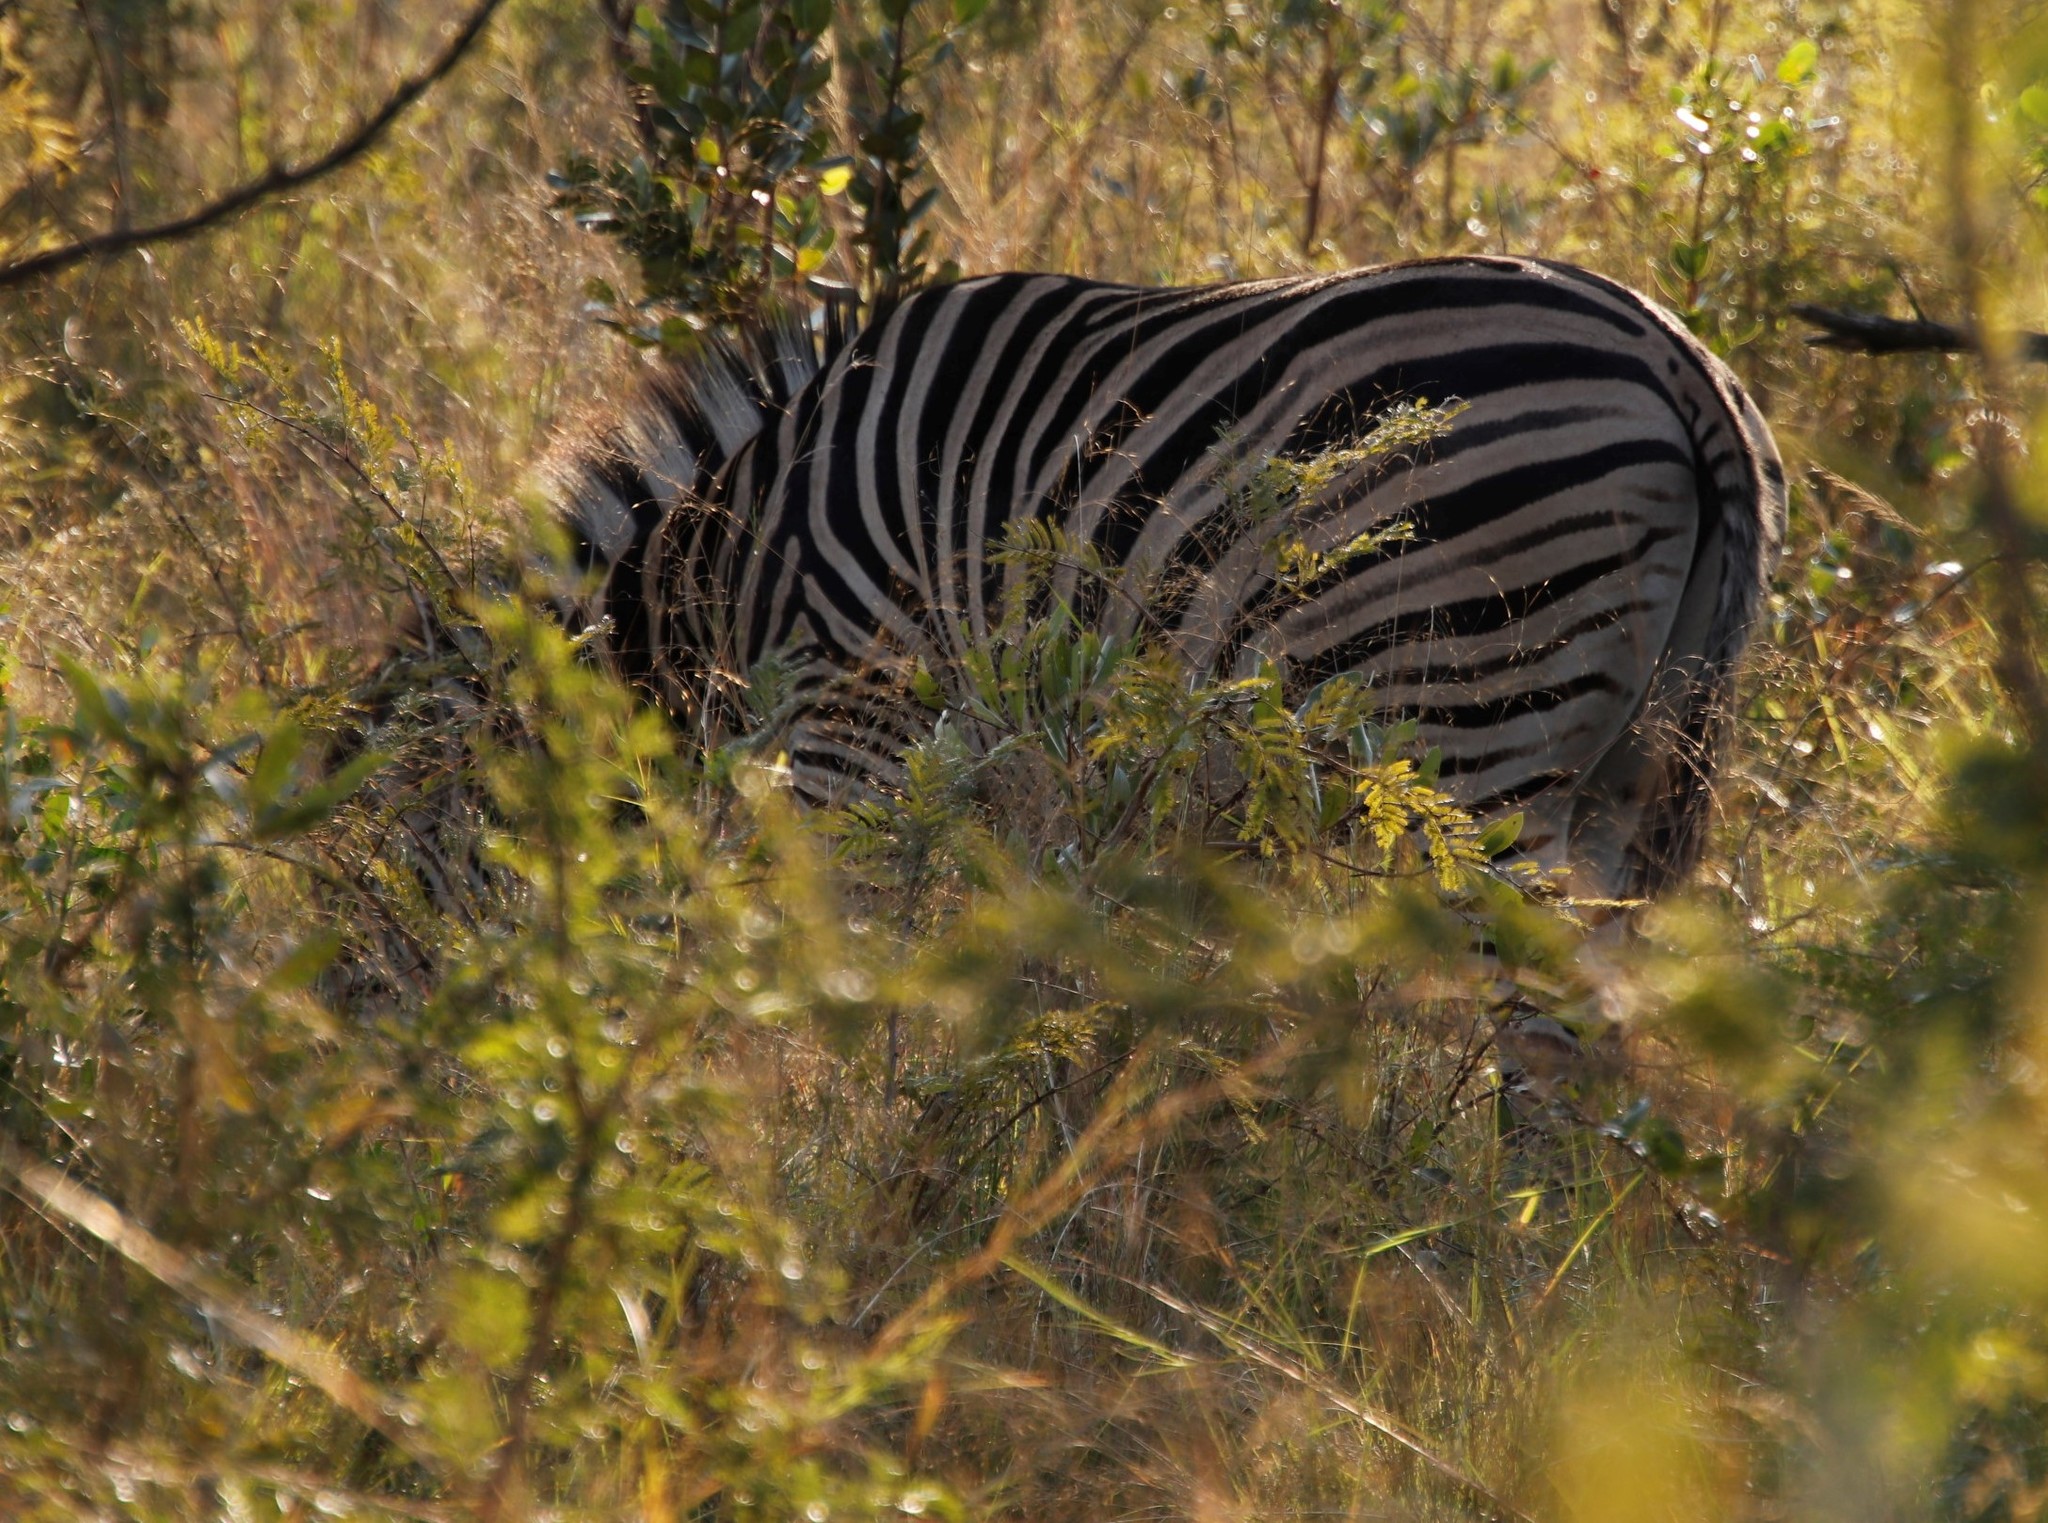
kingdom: Animalia
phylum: Chordata
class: Mammalia
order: Perissodactyla
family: Equidae
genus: Equus
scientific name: Equus quagga
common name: Plains zebra
